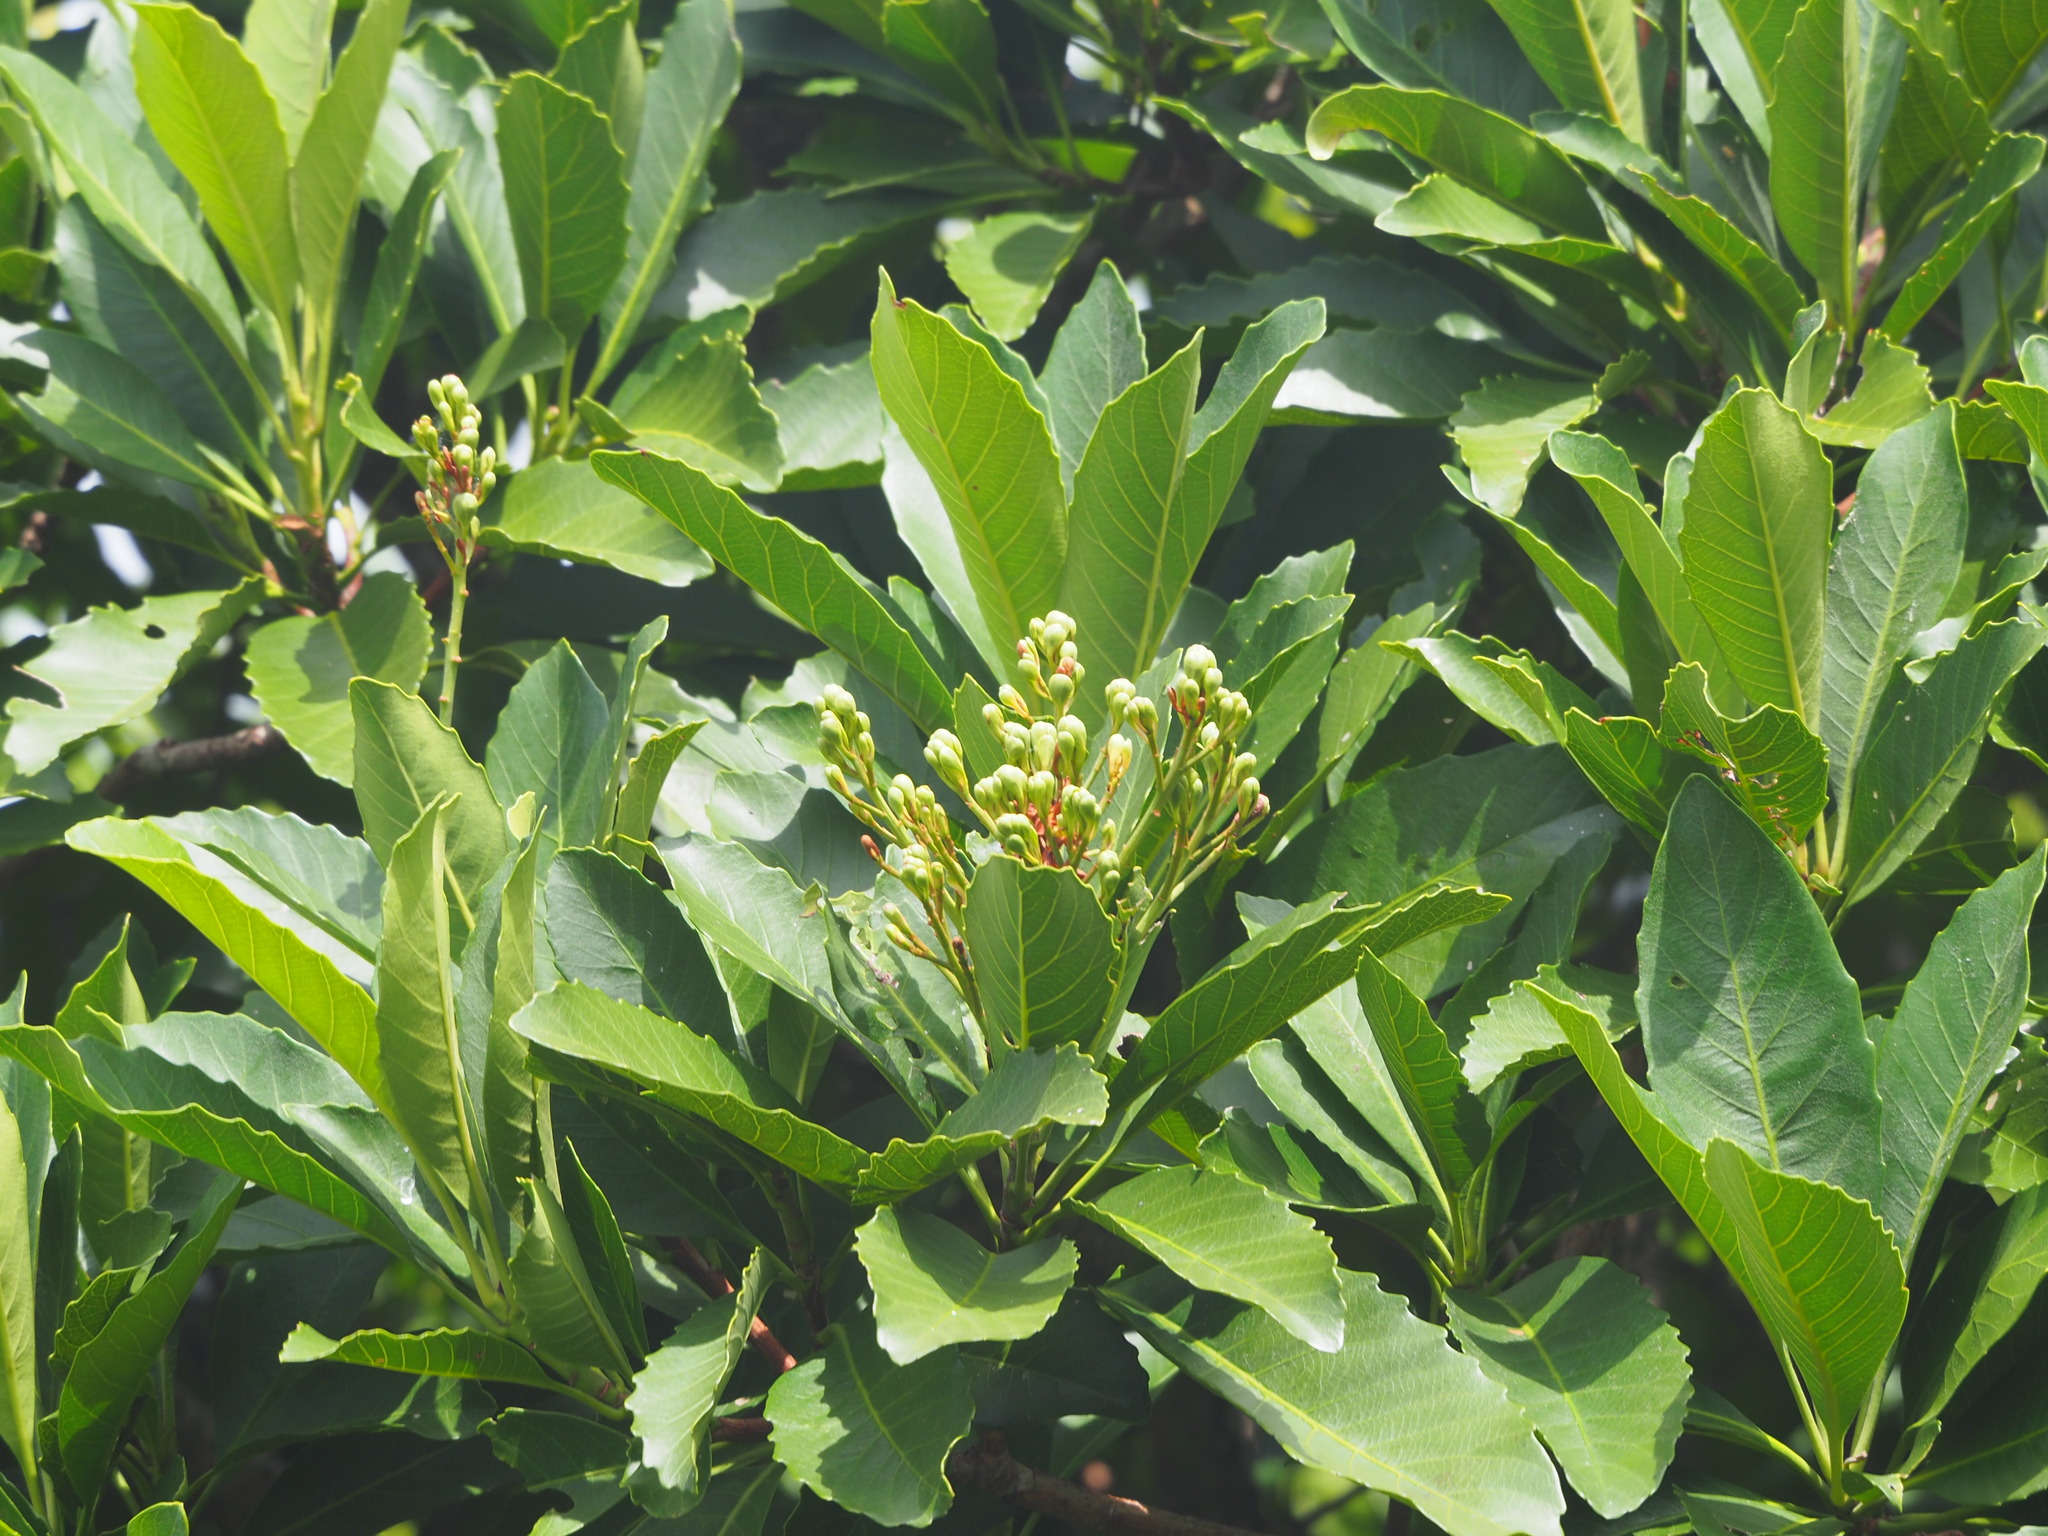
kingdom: Plantae
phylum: Tracheophyta
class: Magnoliopsida
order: Rosales
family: Rosaceae
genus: Rhaphiolepis
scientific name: Rhaphiolepis deflexa
